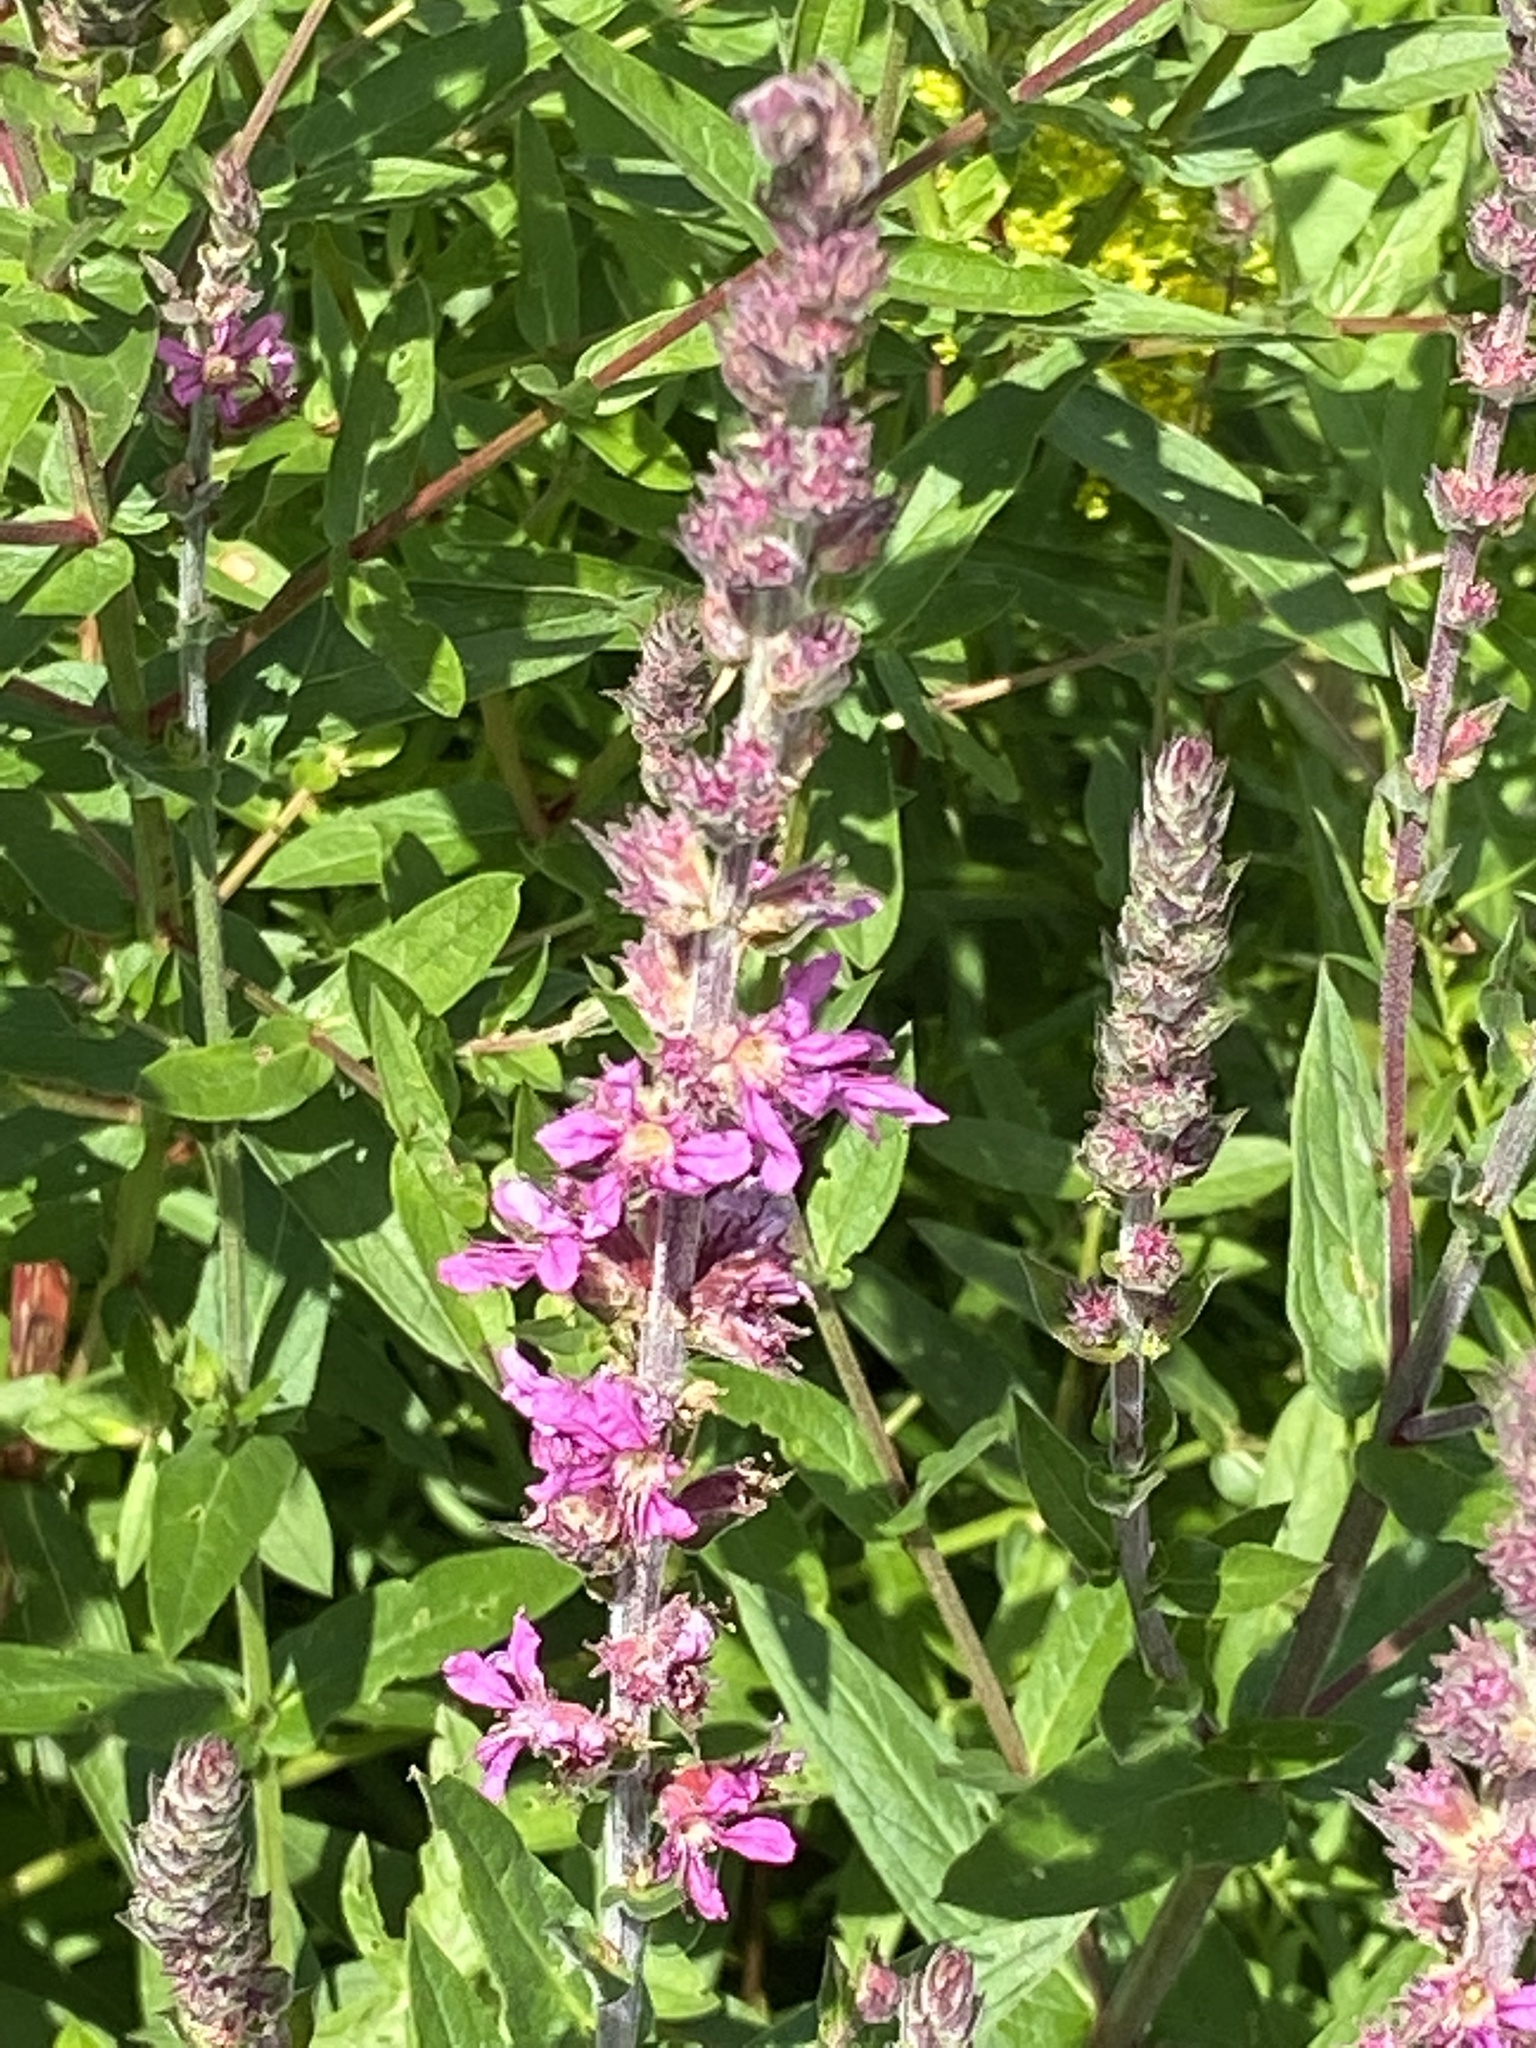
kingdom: Plantae
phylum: Tracheophyta
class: Magnoliopsida
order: Myrtales
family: Lythraceae
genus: Lythrum
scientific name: Lythrum salicaria
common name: Purple loosestrife
